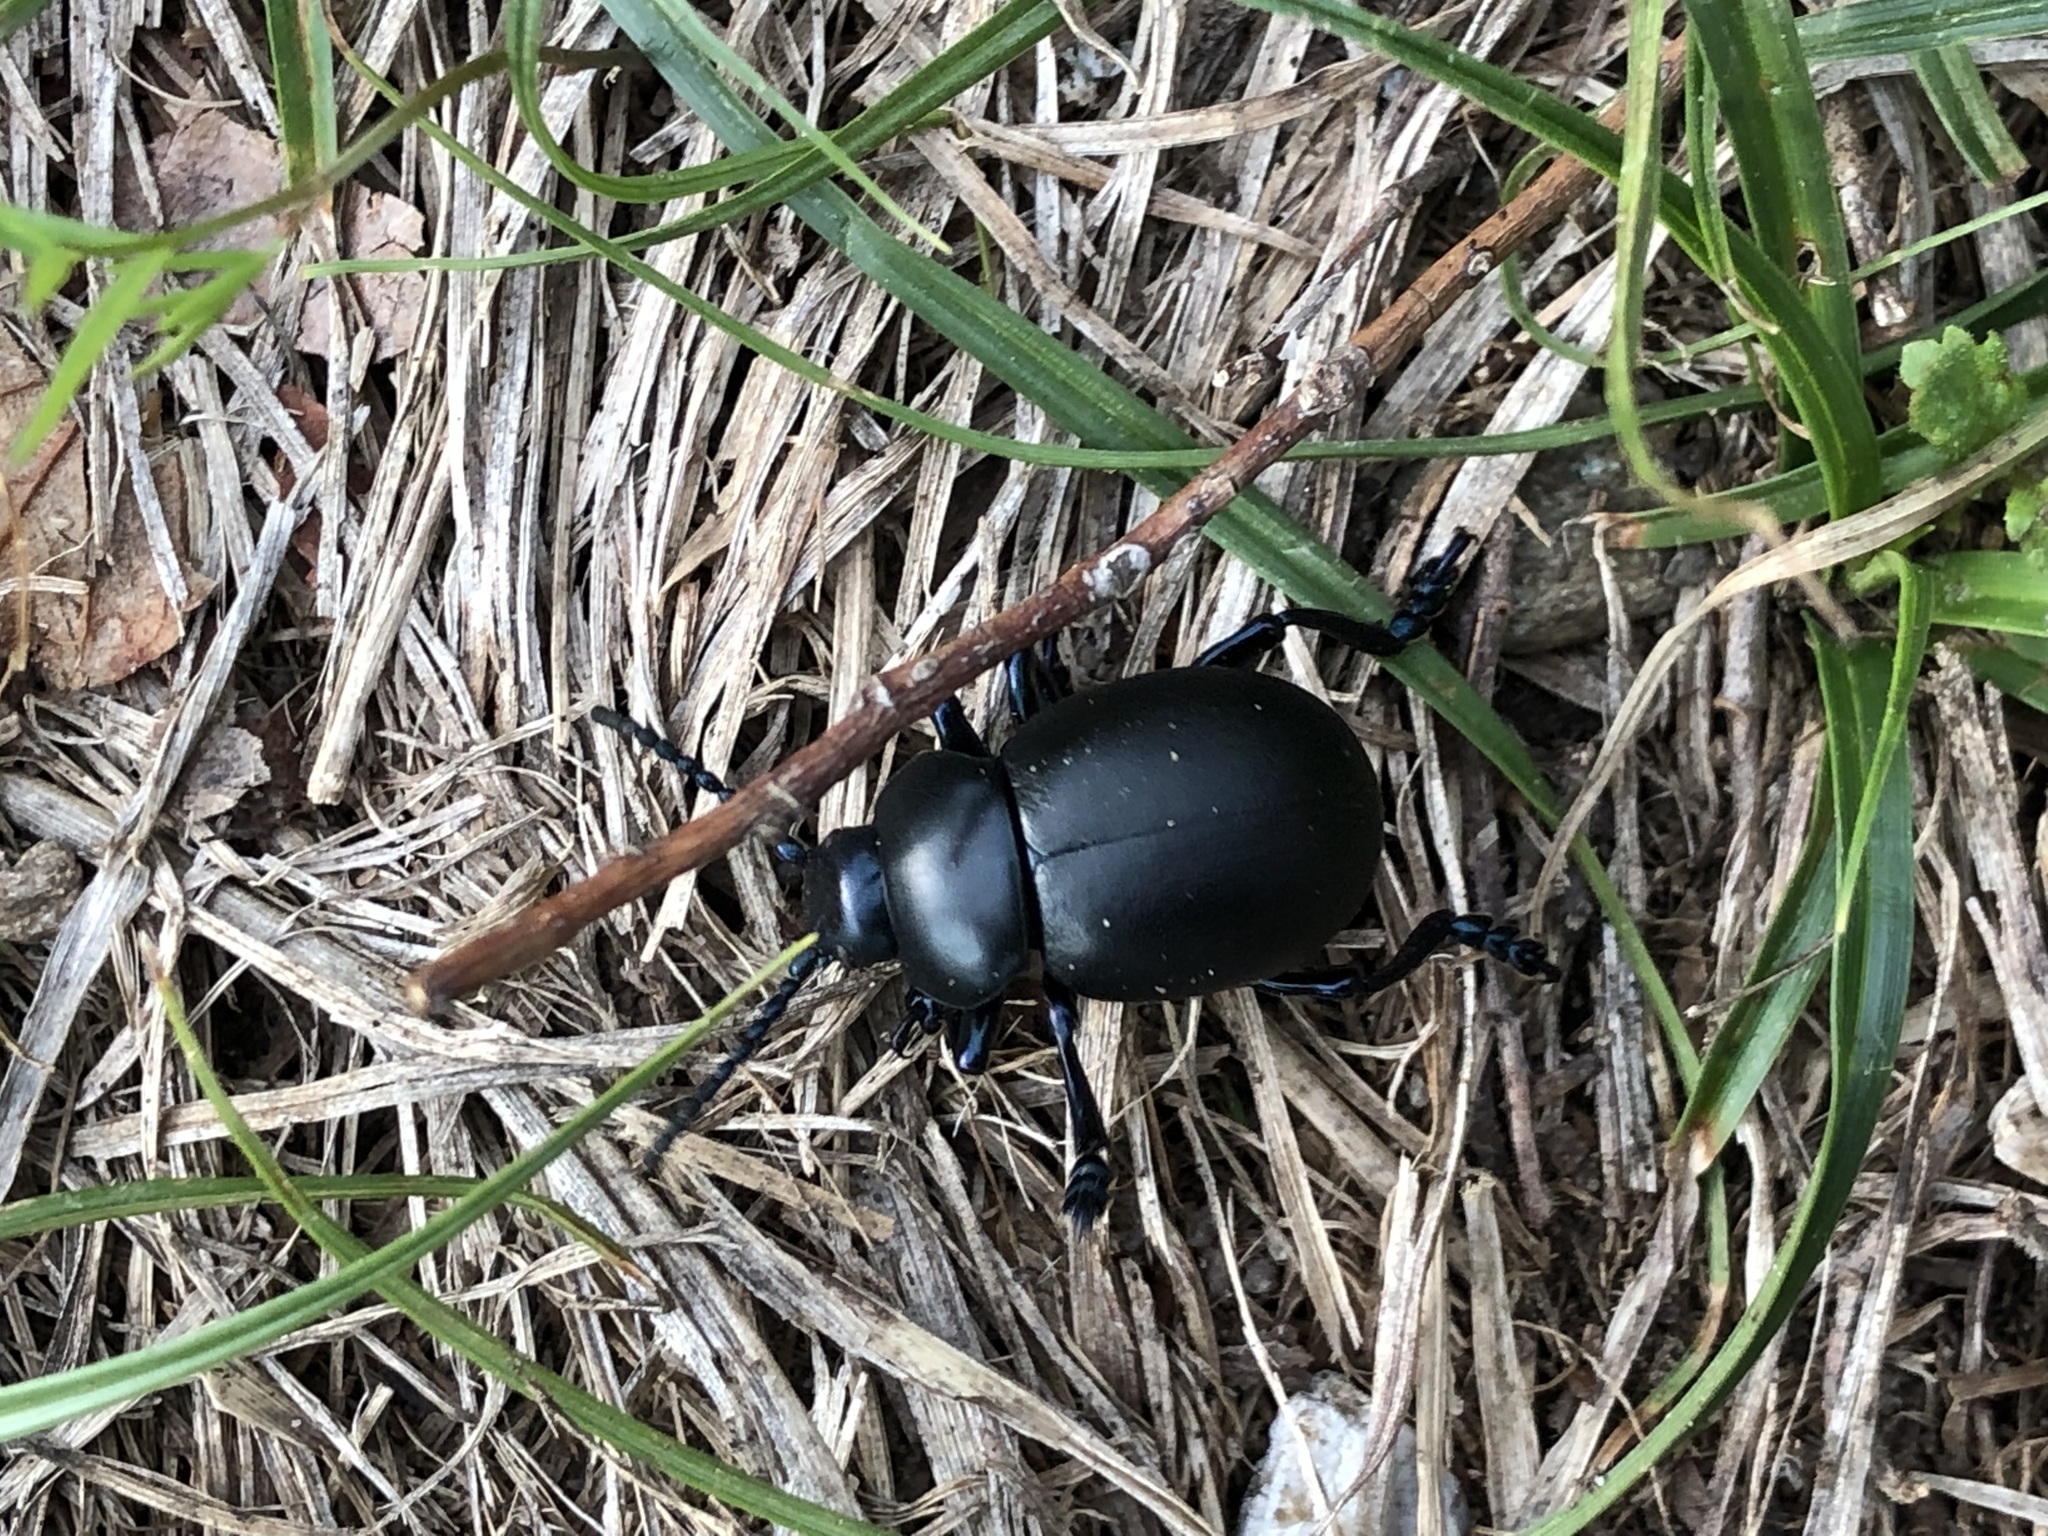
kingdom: Animalia
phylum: Arthropoda
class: Insecta
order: Coleoptera
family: Chrysomelidae
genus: Timarcha
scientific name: Timarcha tenebricosa
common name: Bloody-nosed beetle
